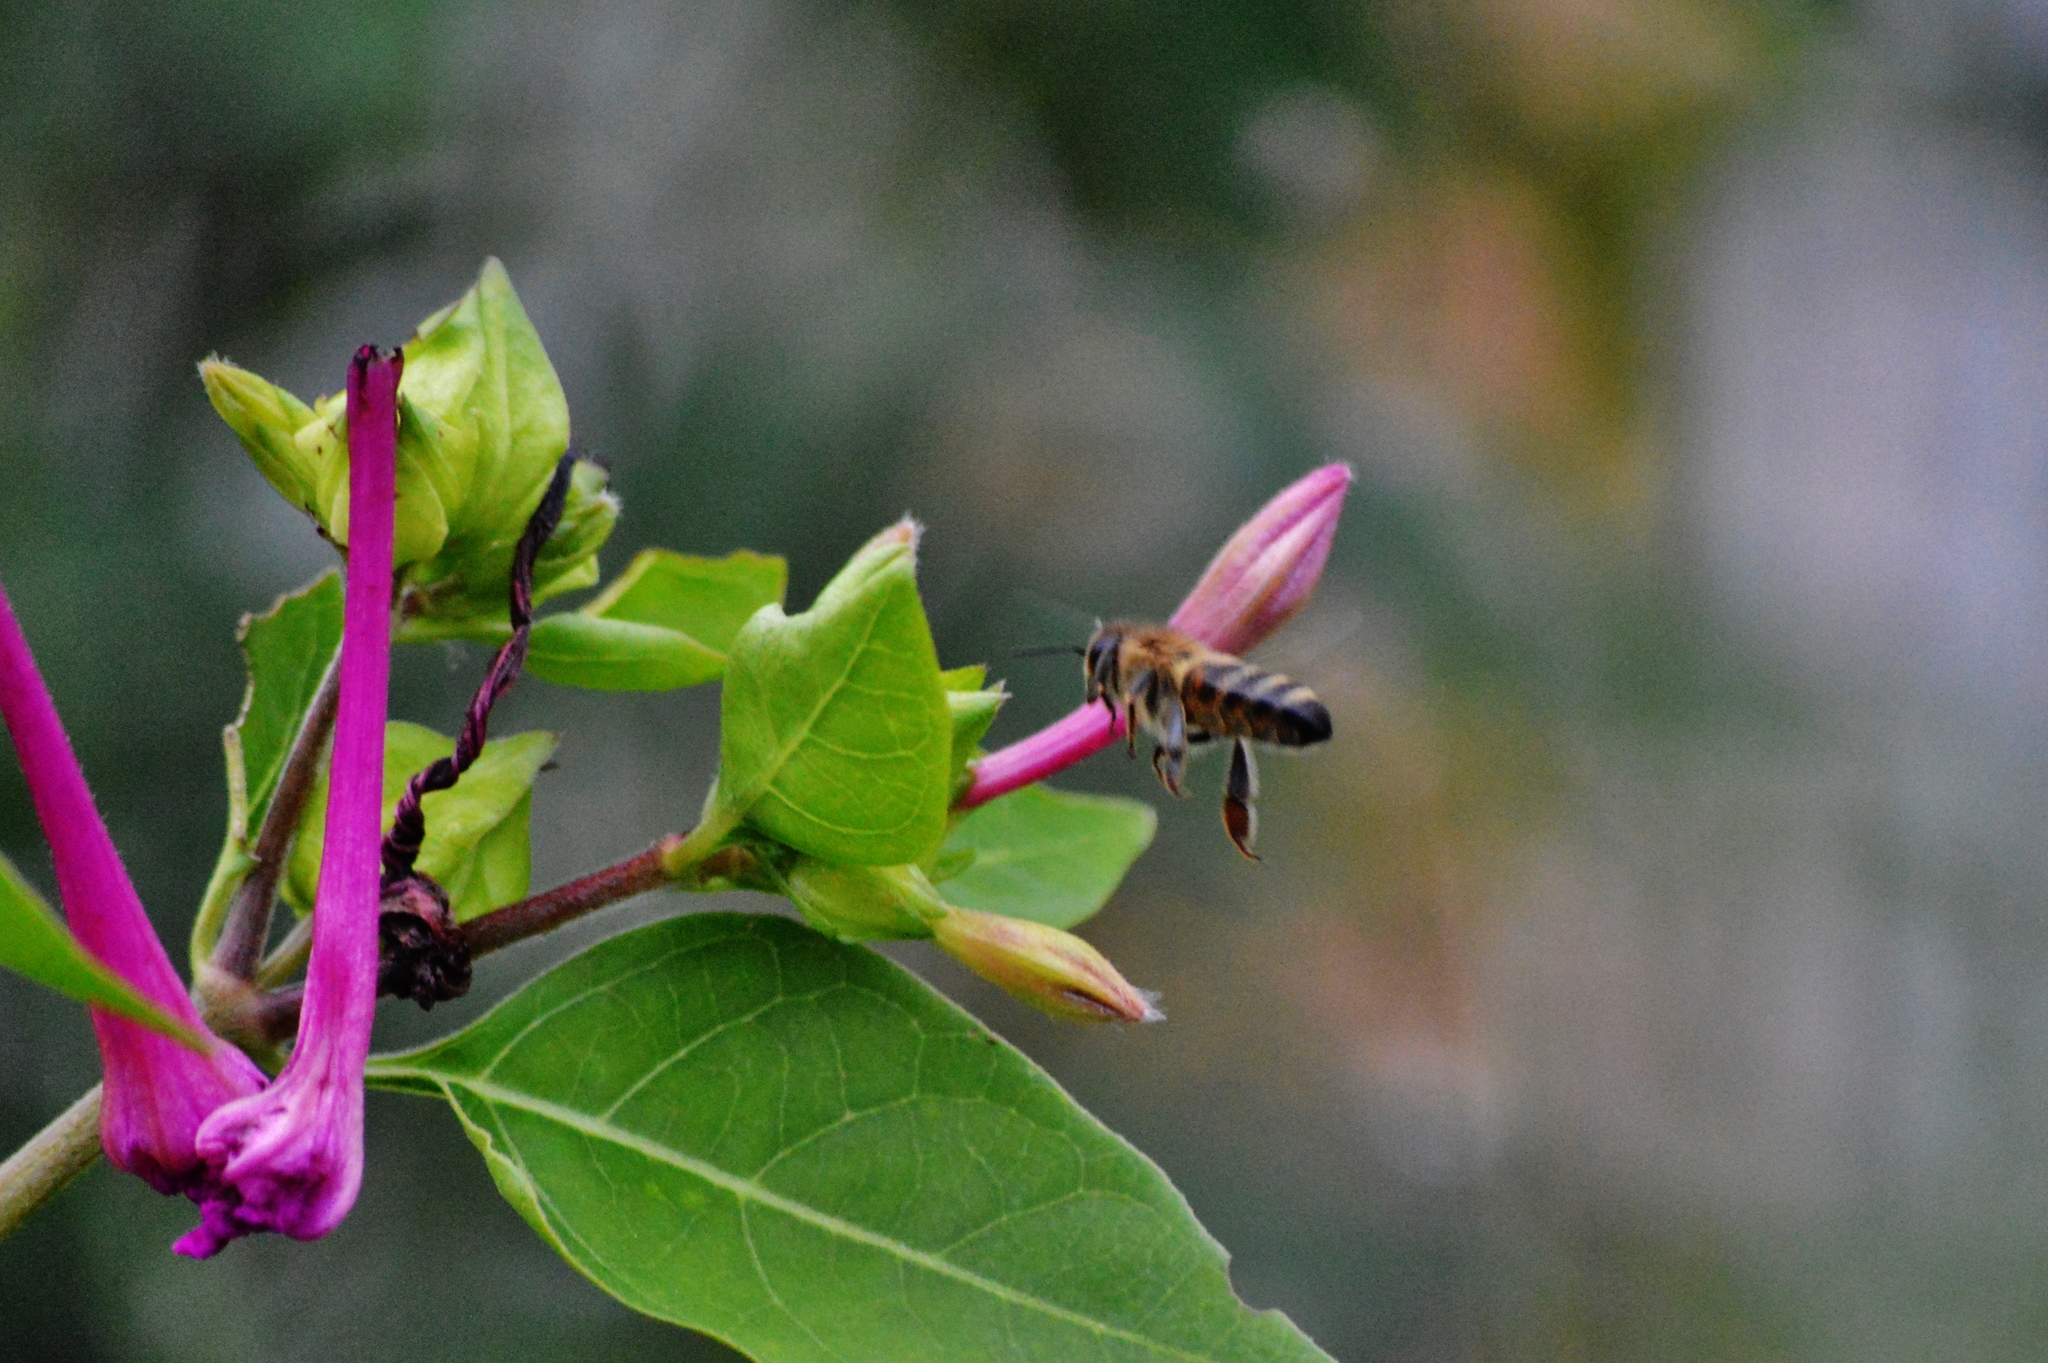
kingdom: Animalia
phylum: Arthropoda
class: Insecta
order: Hymenoptera
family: Apidae
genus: Apis
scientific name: Apis mellifera
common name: Honey bee
